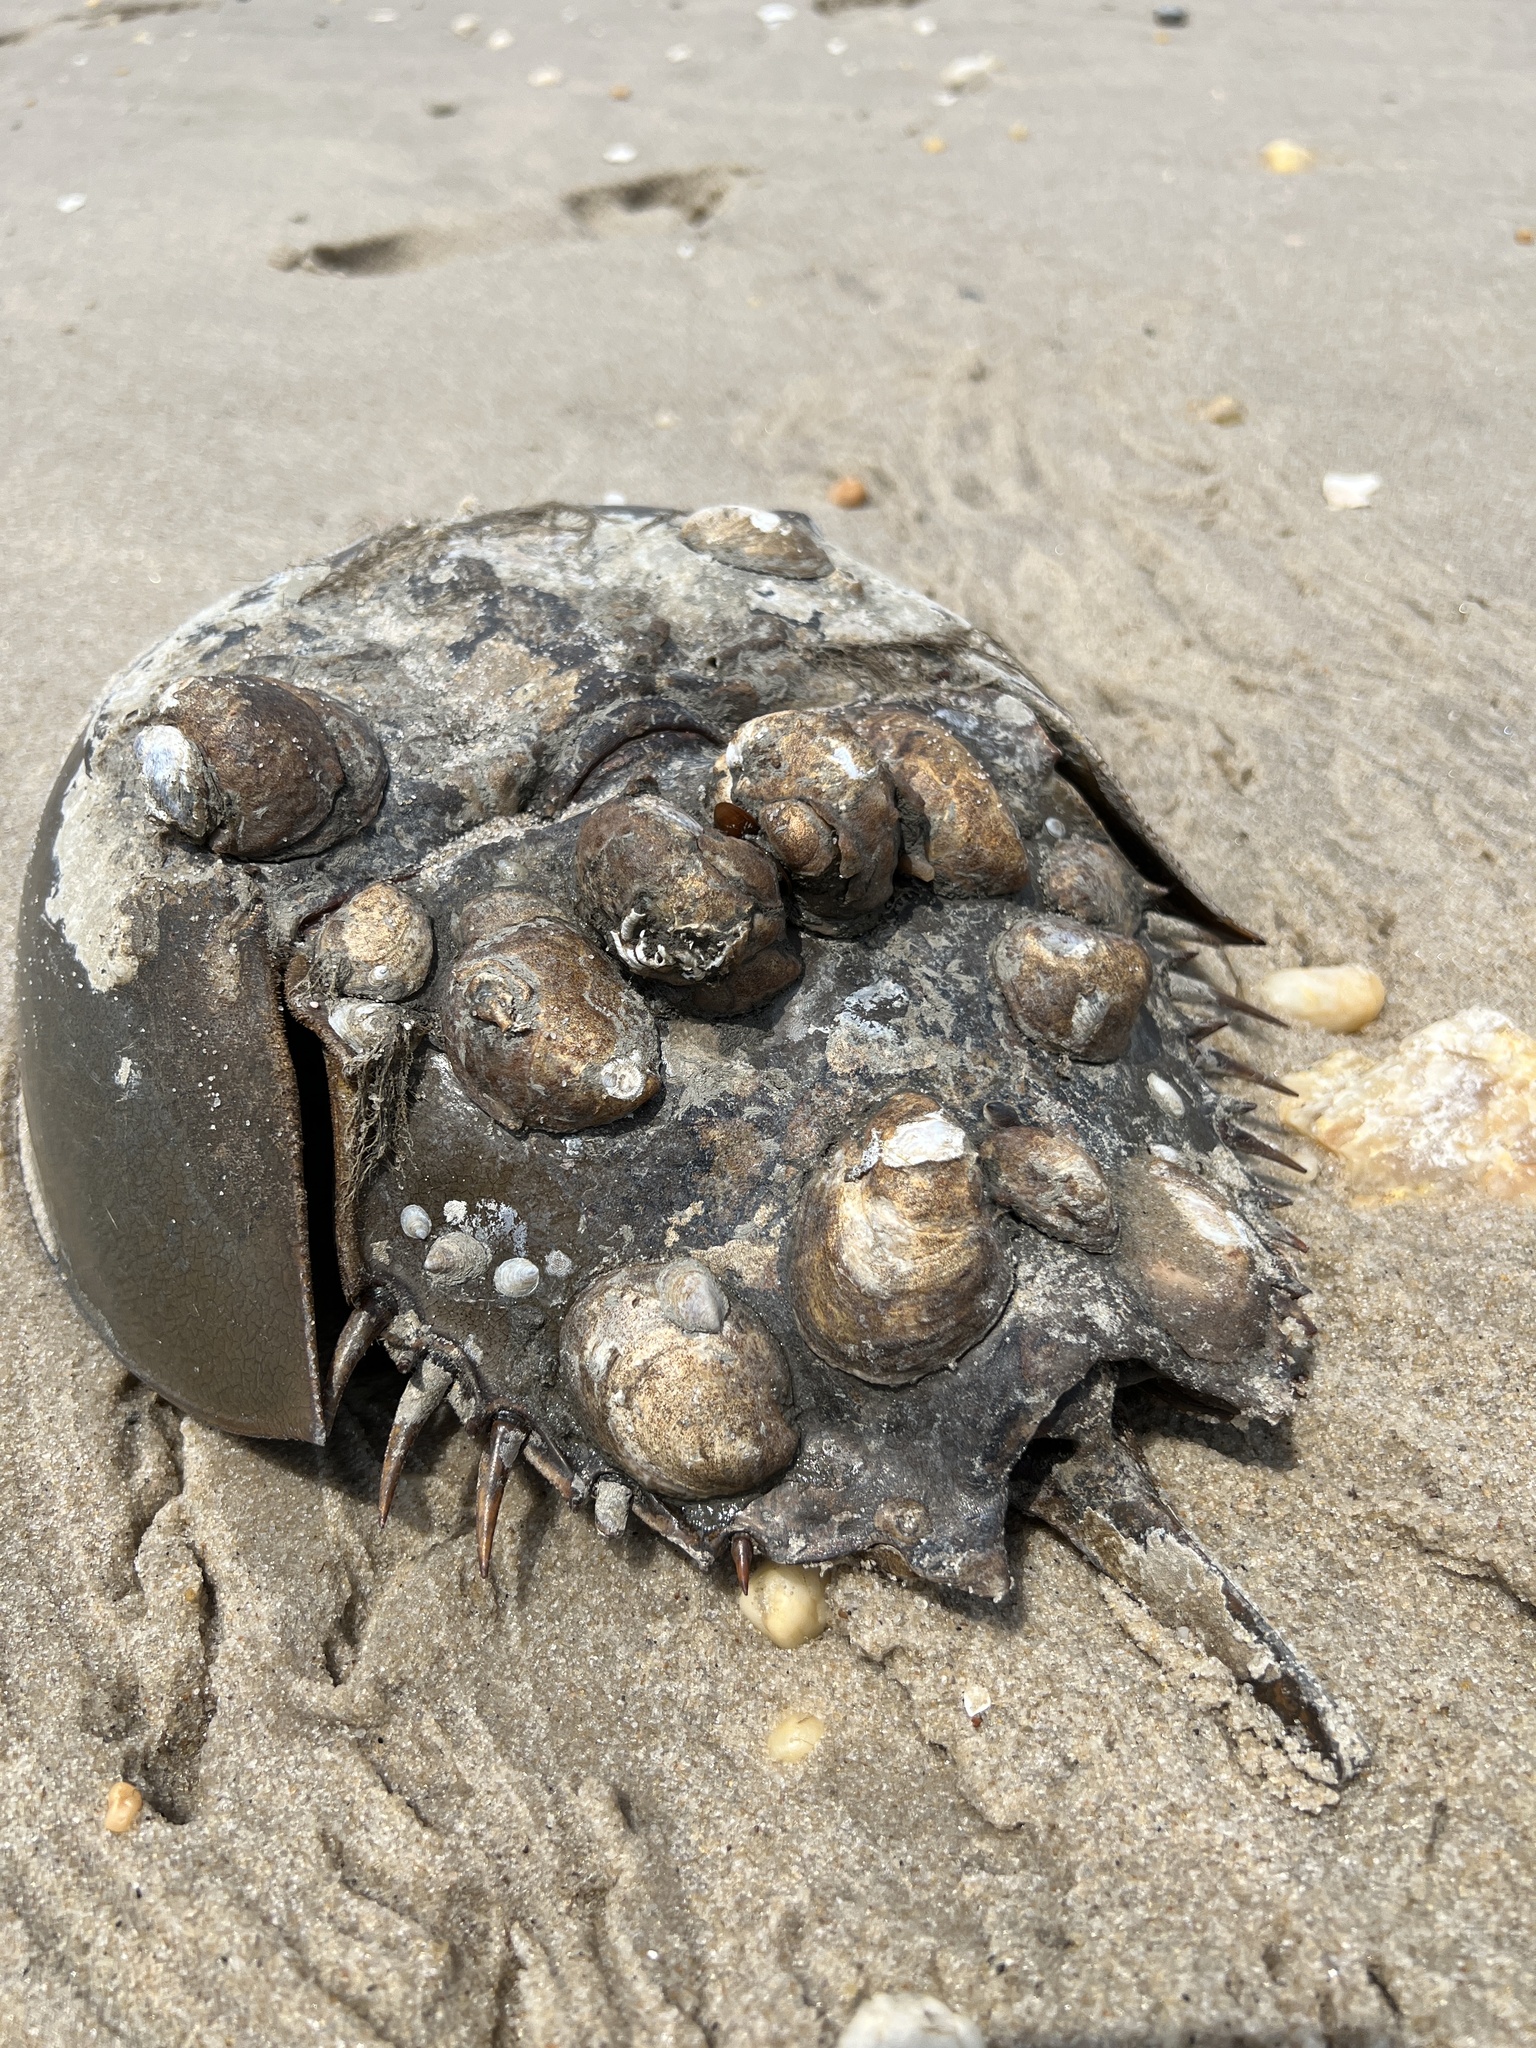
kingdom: Animalia
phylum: Arthropoda
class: Merostomata
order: Xiphosurida
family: Limulidae
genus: Limulus
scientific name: Limulus polyphemus
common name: Horseshoe crab
